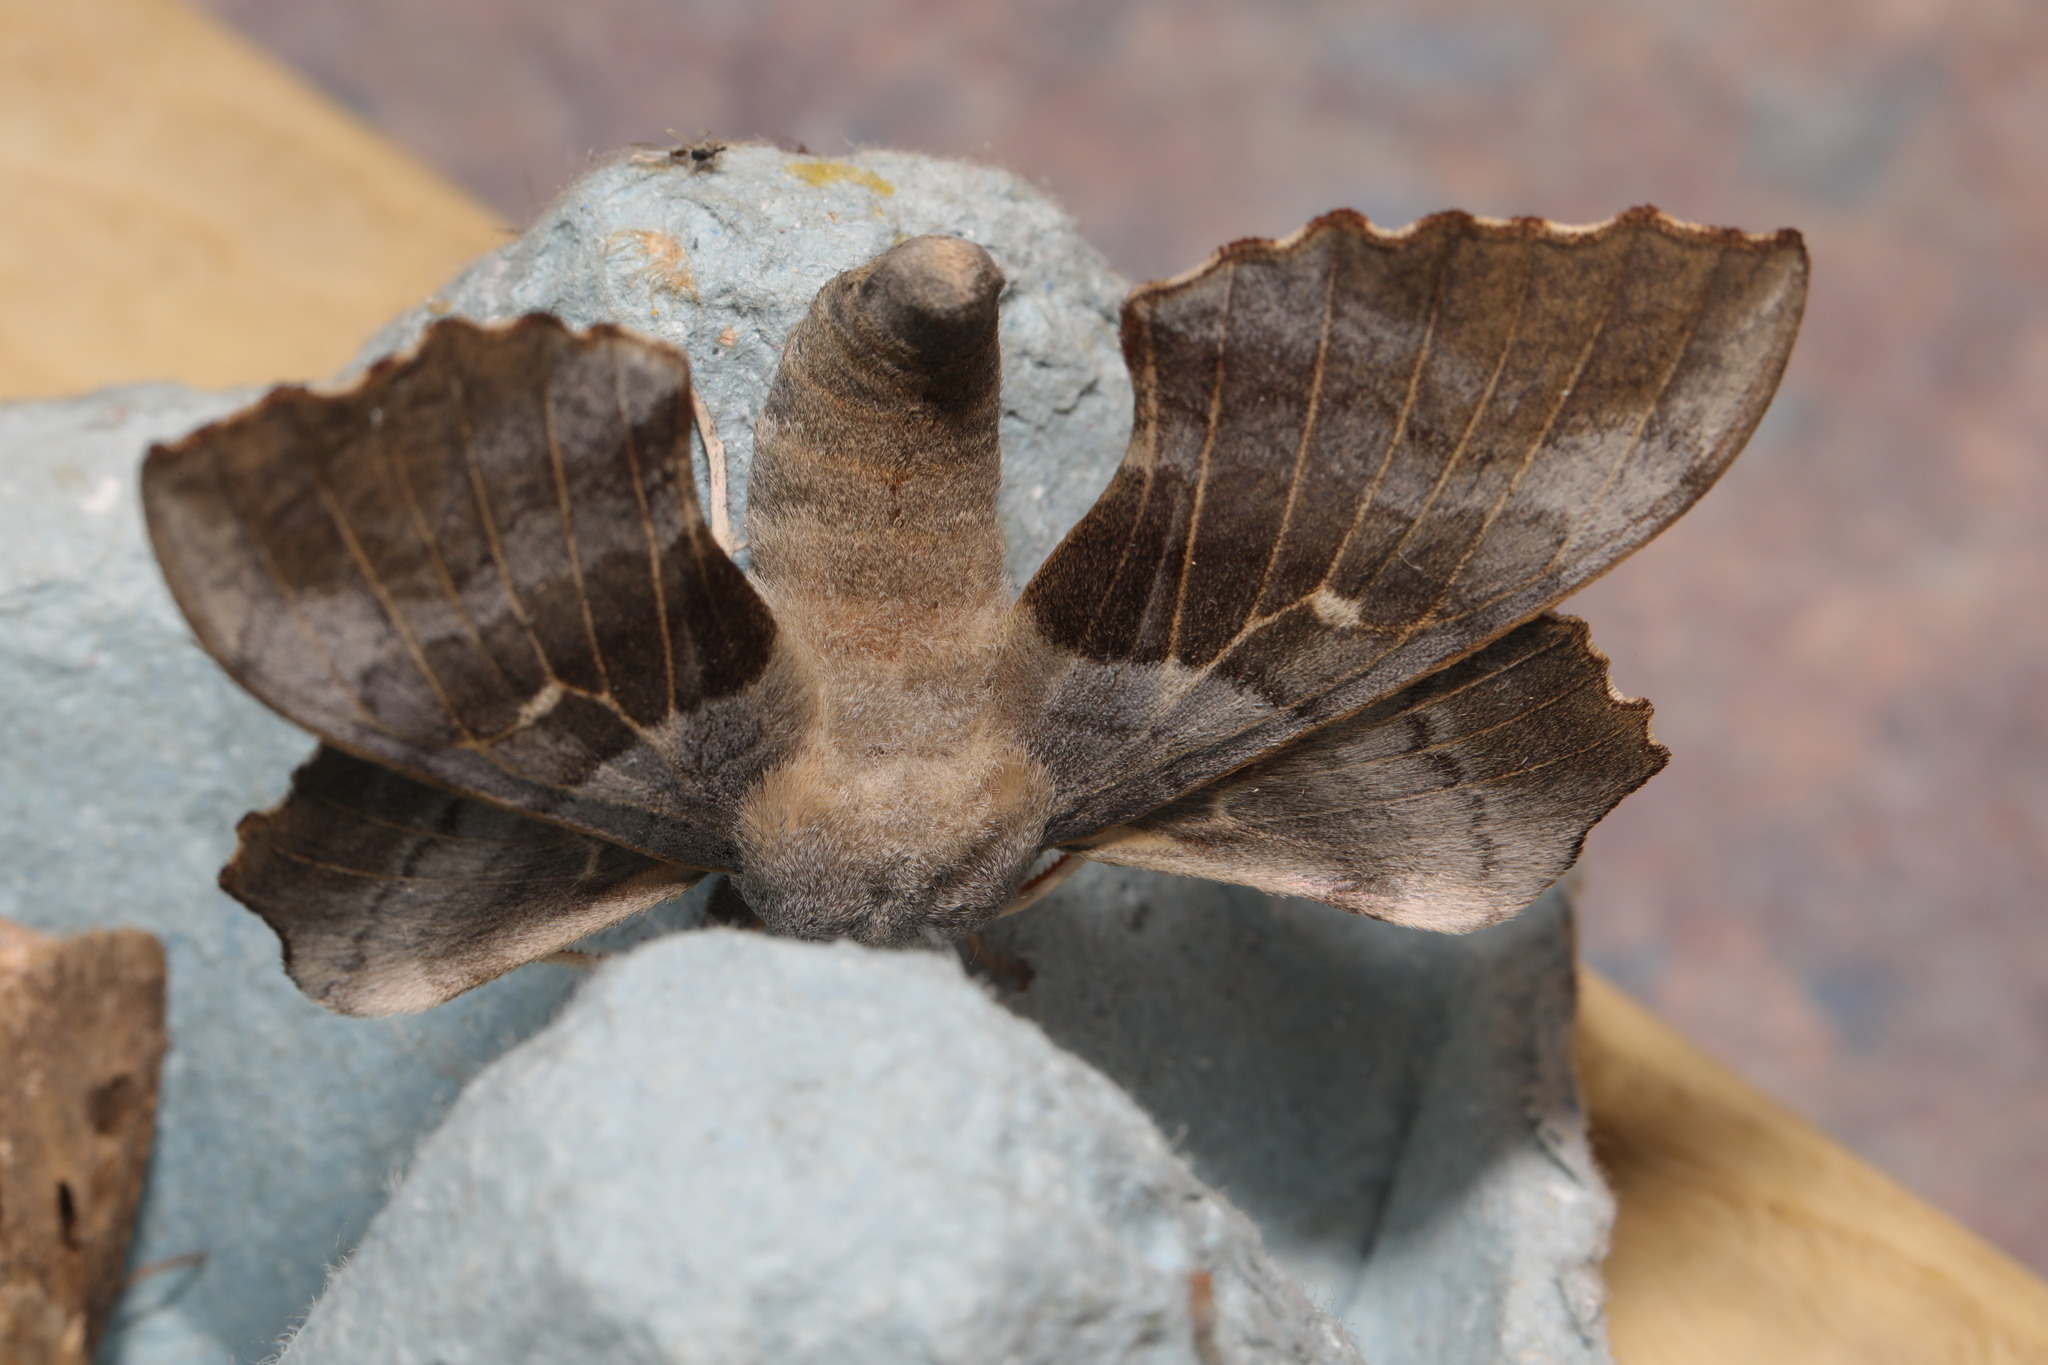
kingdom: Animalia
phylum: Arthropoda
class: Insecta
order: Lepidoptera
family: Sphingidae
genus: Laothoe
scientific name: Laothoe populi
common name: Poplar hawk-moth
